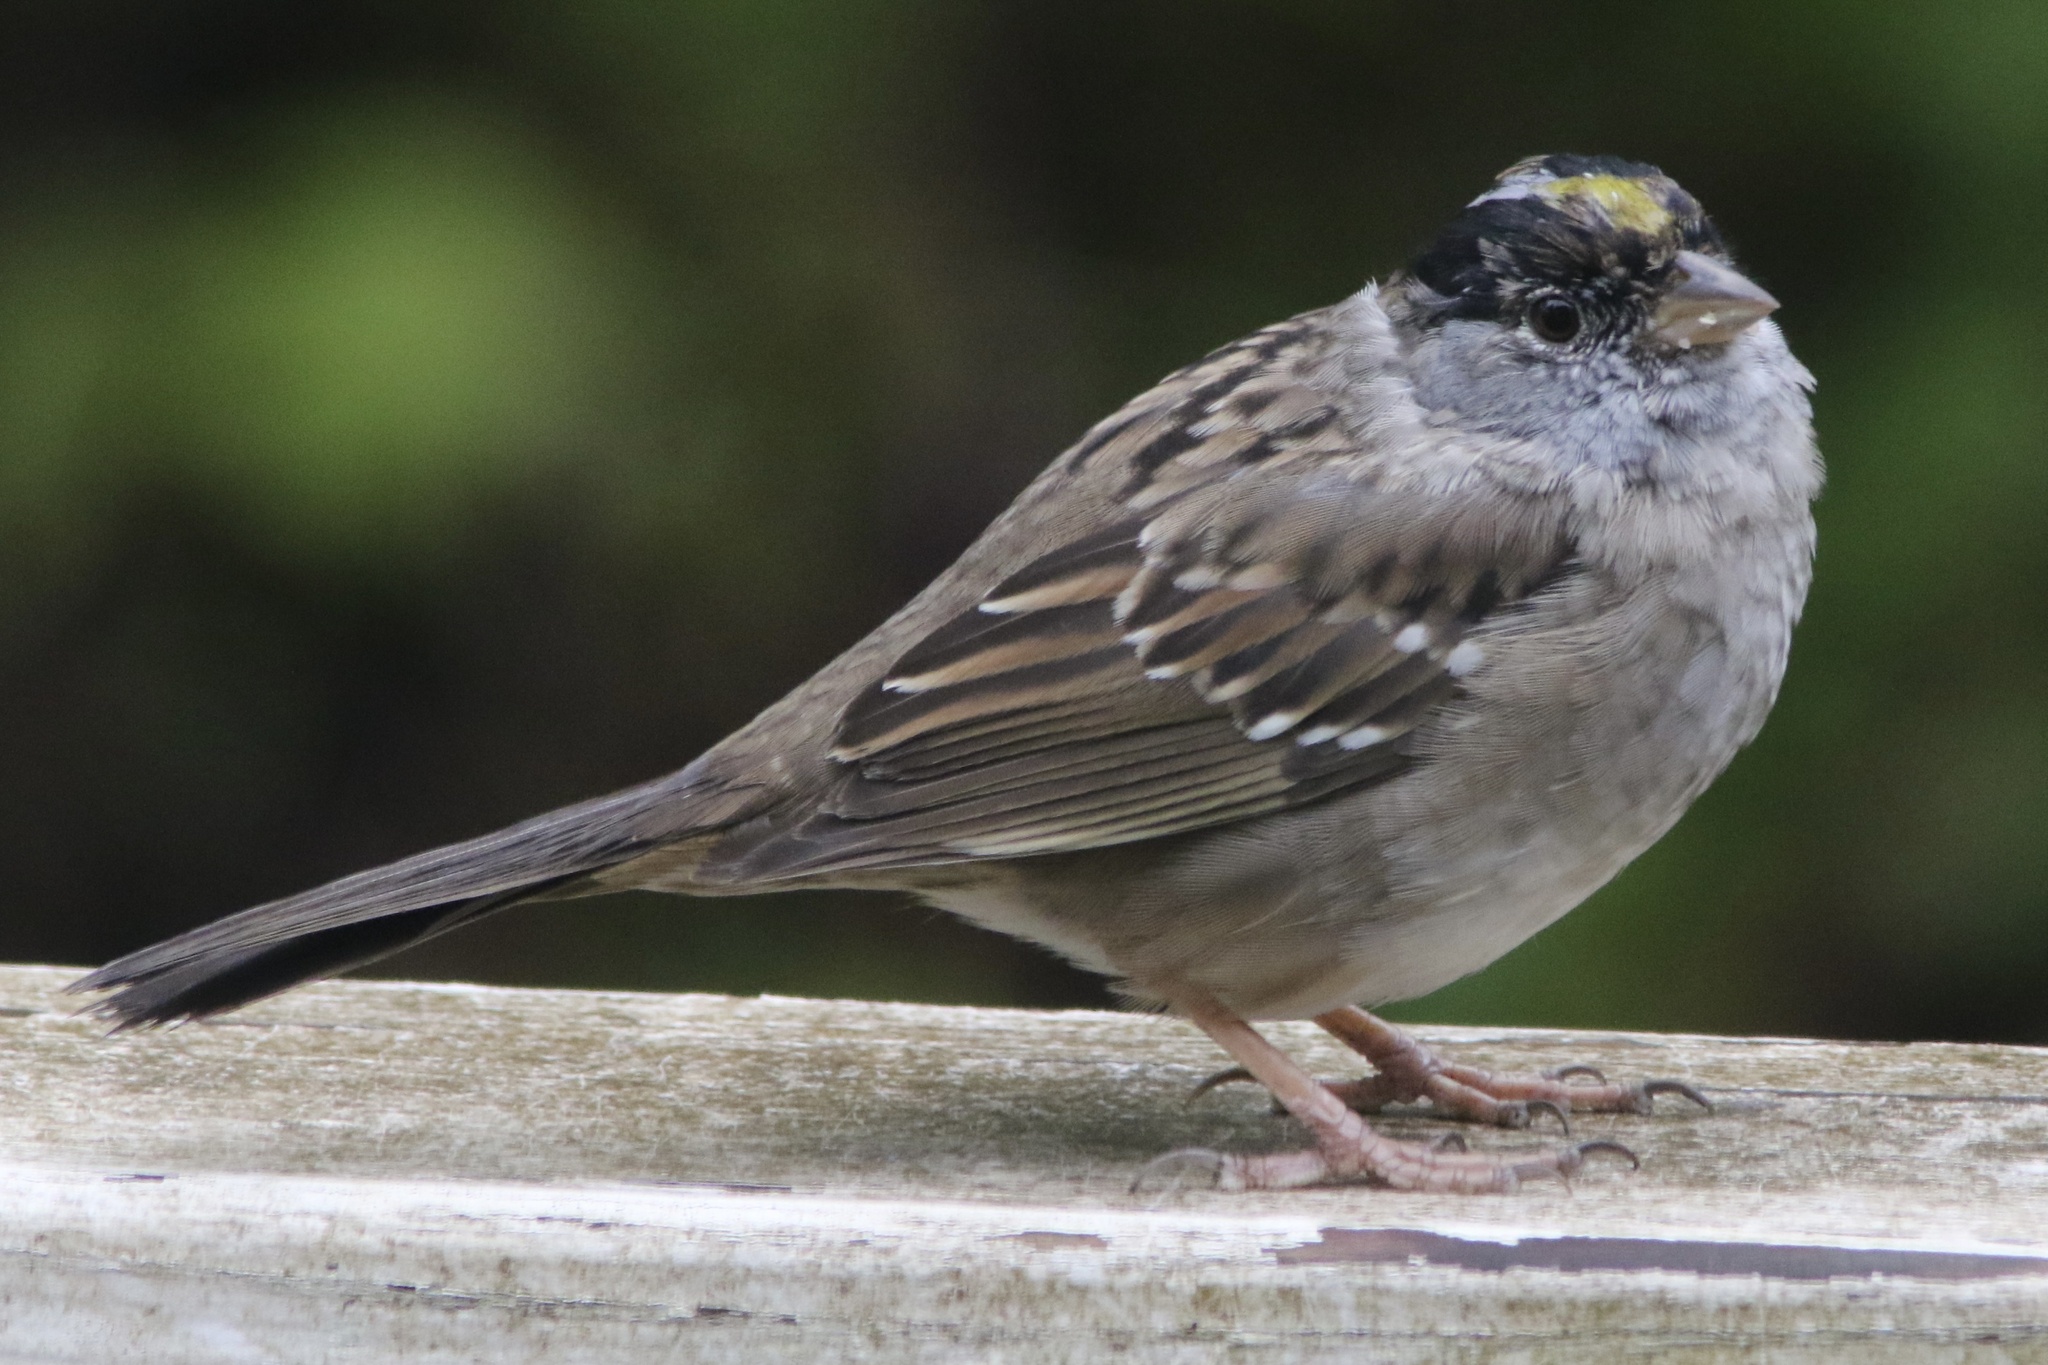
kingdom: Animalia
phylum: Chordata
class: Aves
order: Passeriformes
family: Passerellidae
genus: Zonotrichia
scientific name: Zonotrichia atricapilla
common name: Golden-crowned sparrow
